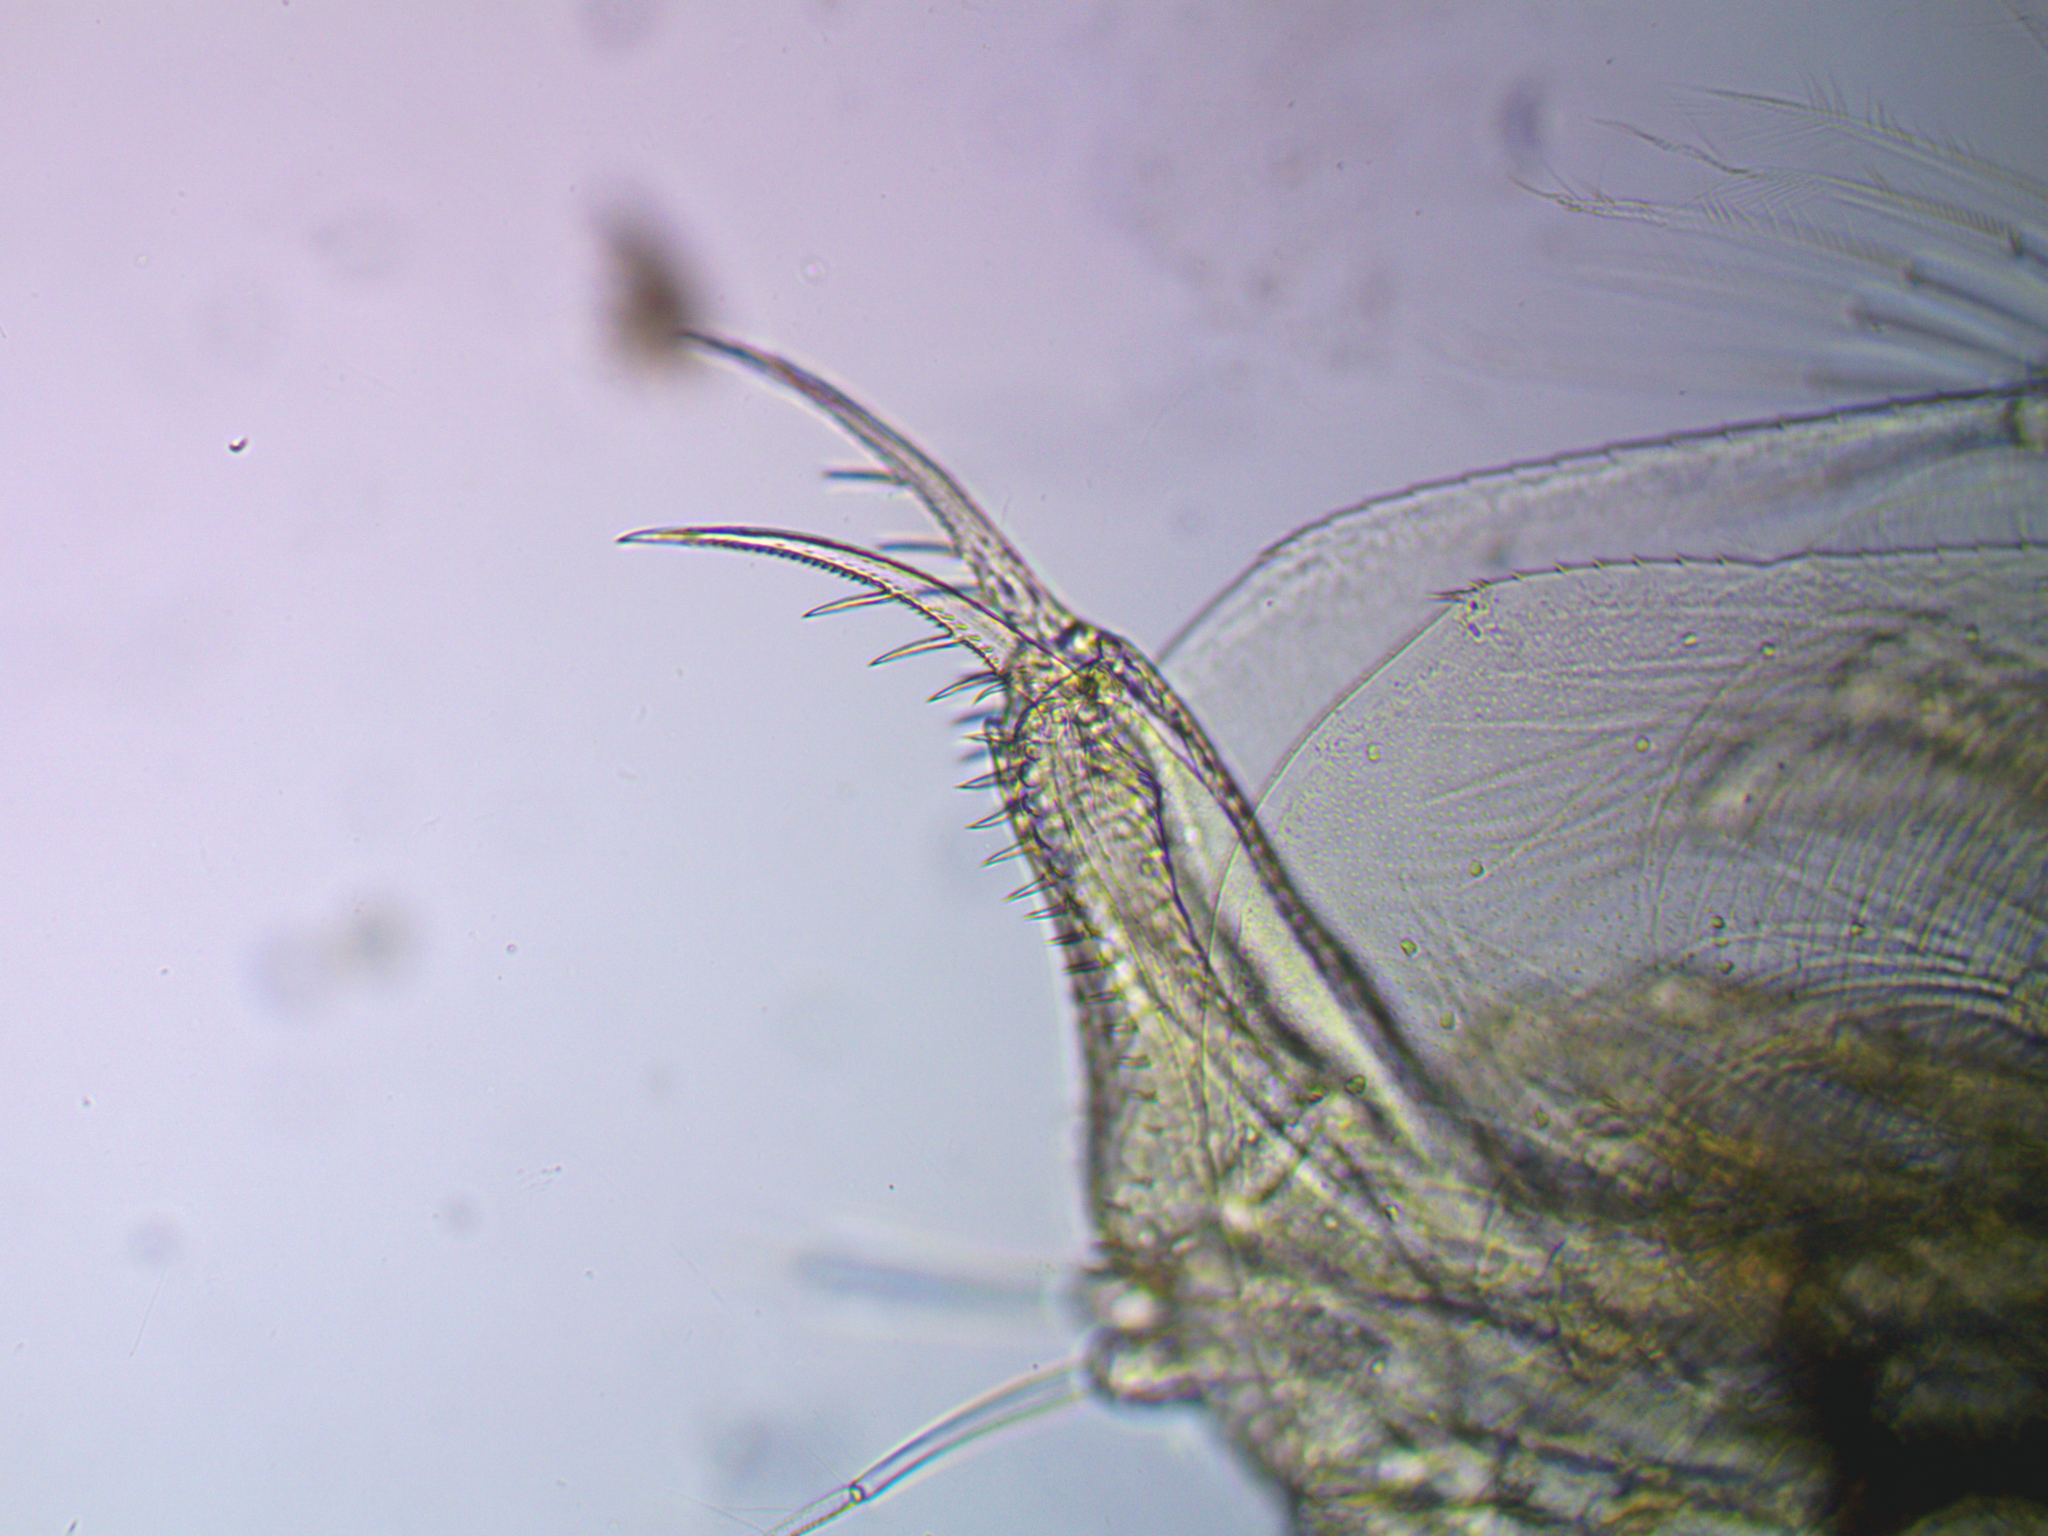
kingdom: Animalia
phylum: Arthropoda
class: Branchiopoda
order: Diplostraca
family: Sididae
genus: Sida
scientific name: Sida crystallina
